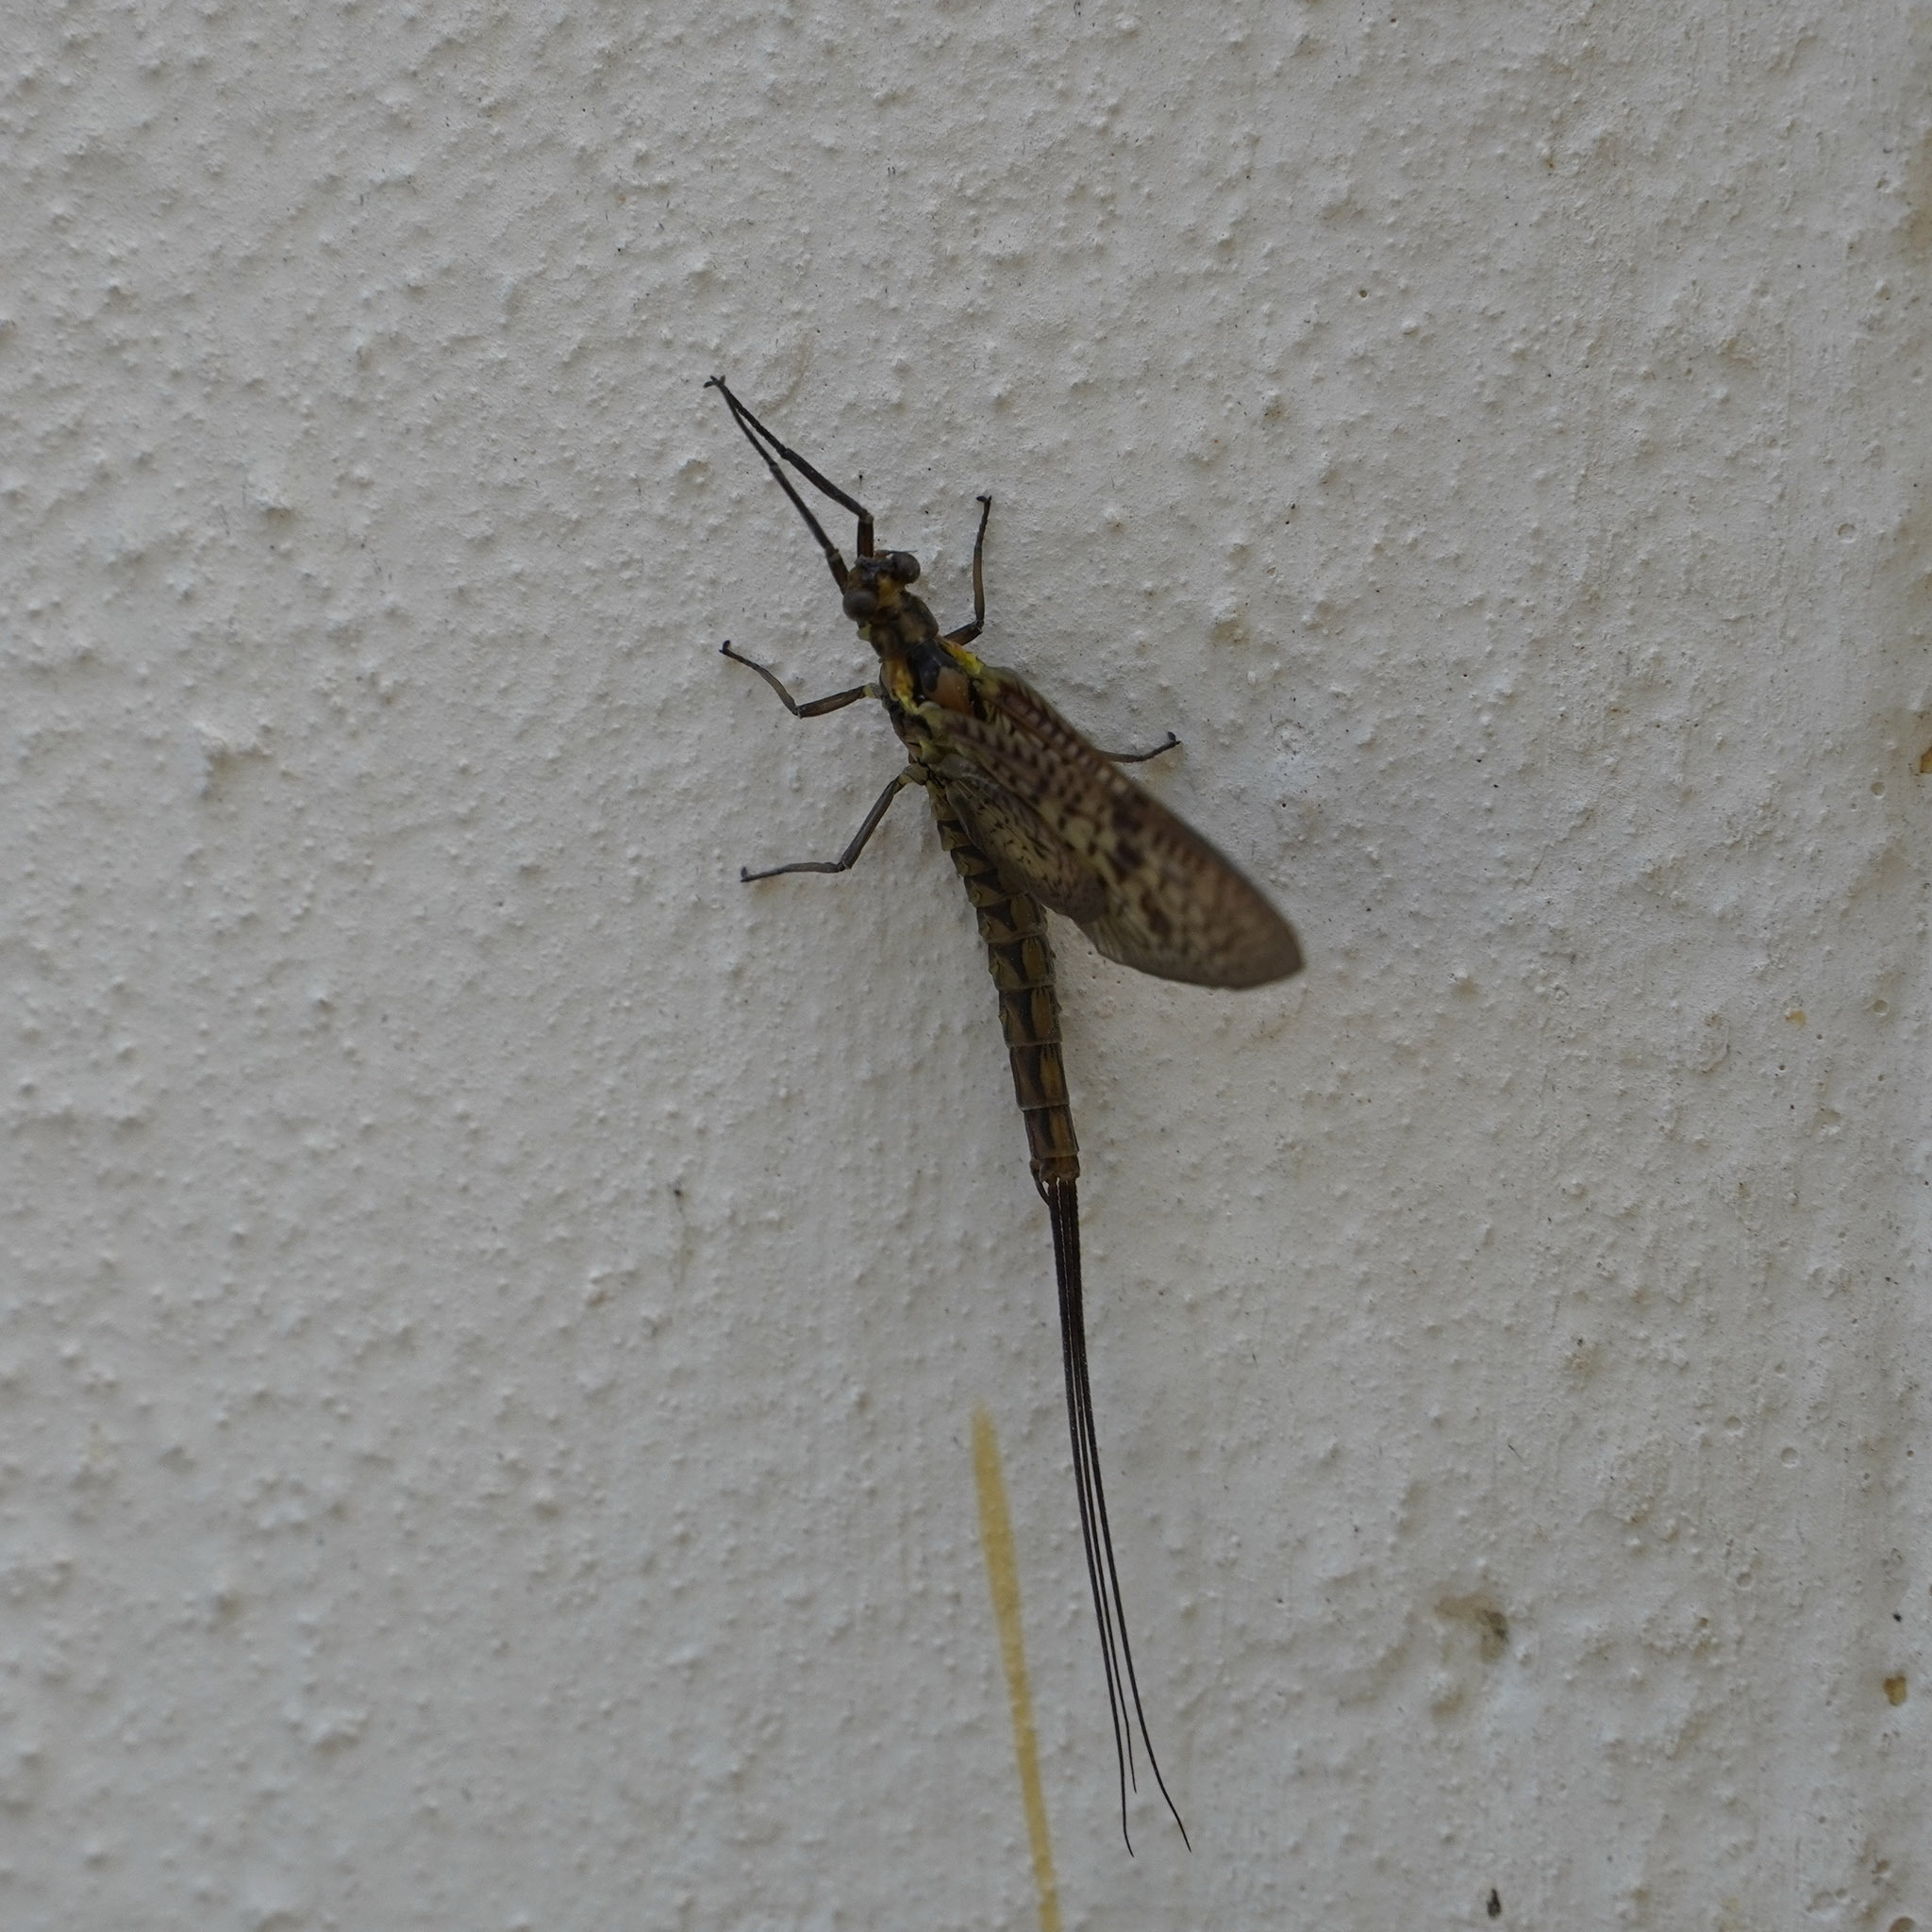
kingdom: Animalia
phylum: Arthropoda
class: Insecta
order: Ephemeroptera
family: Ephemeridae
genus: Ephemera
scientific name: Ephemera vulgata
